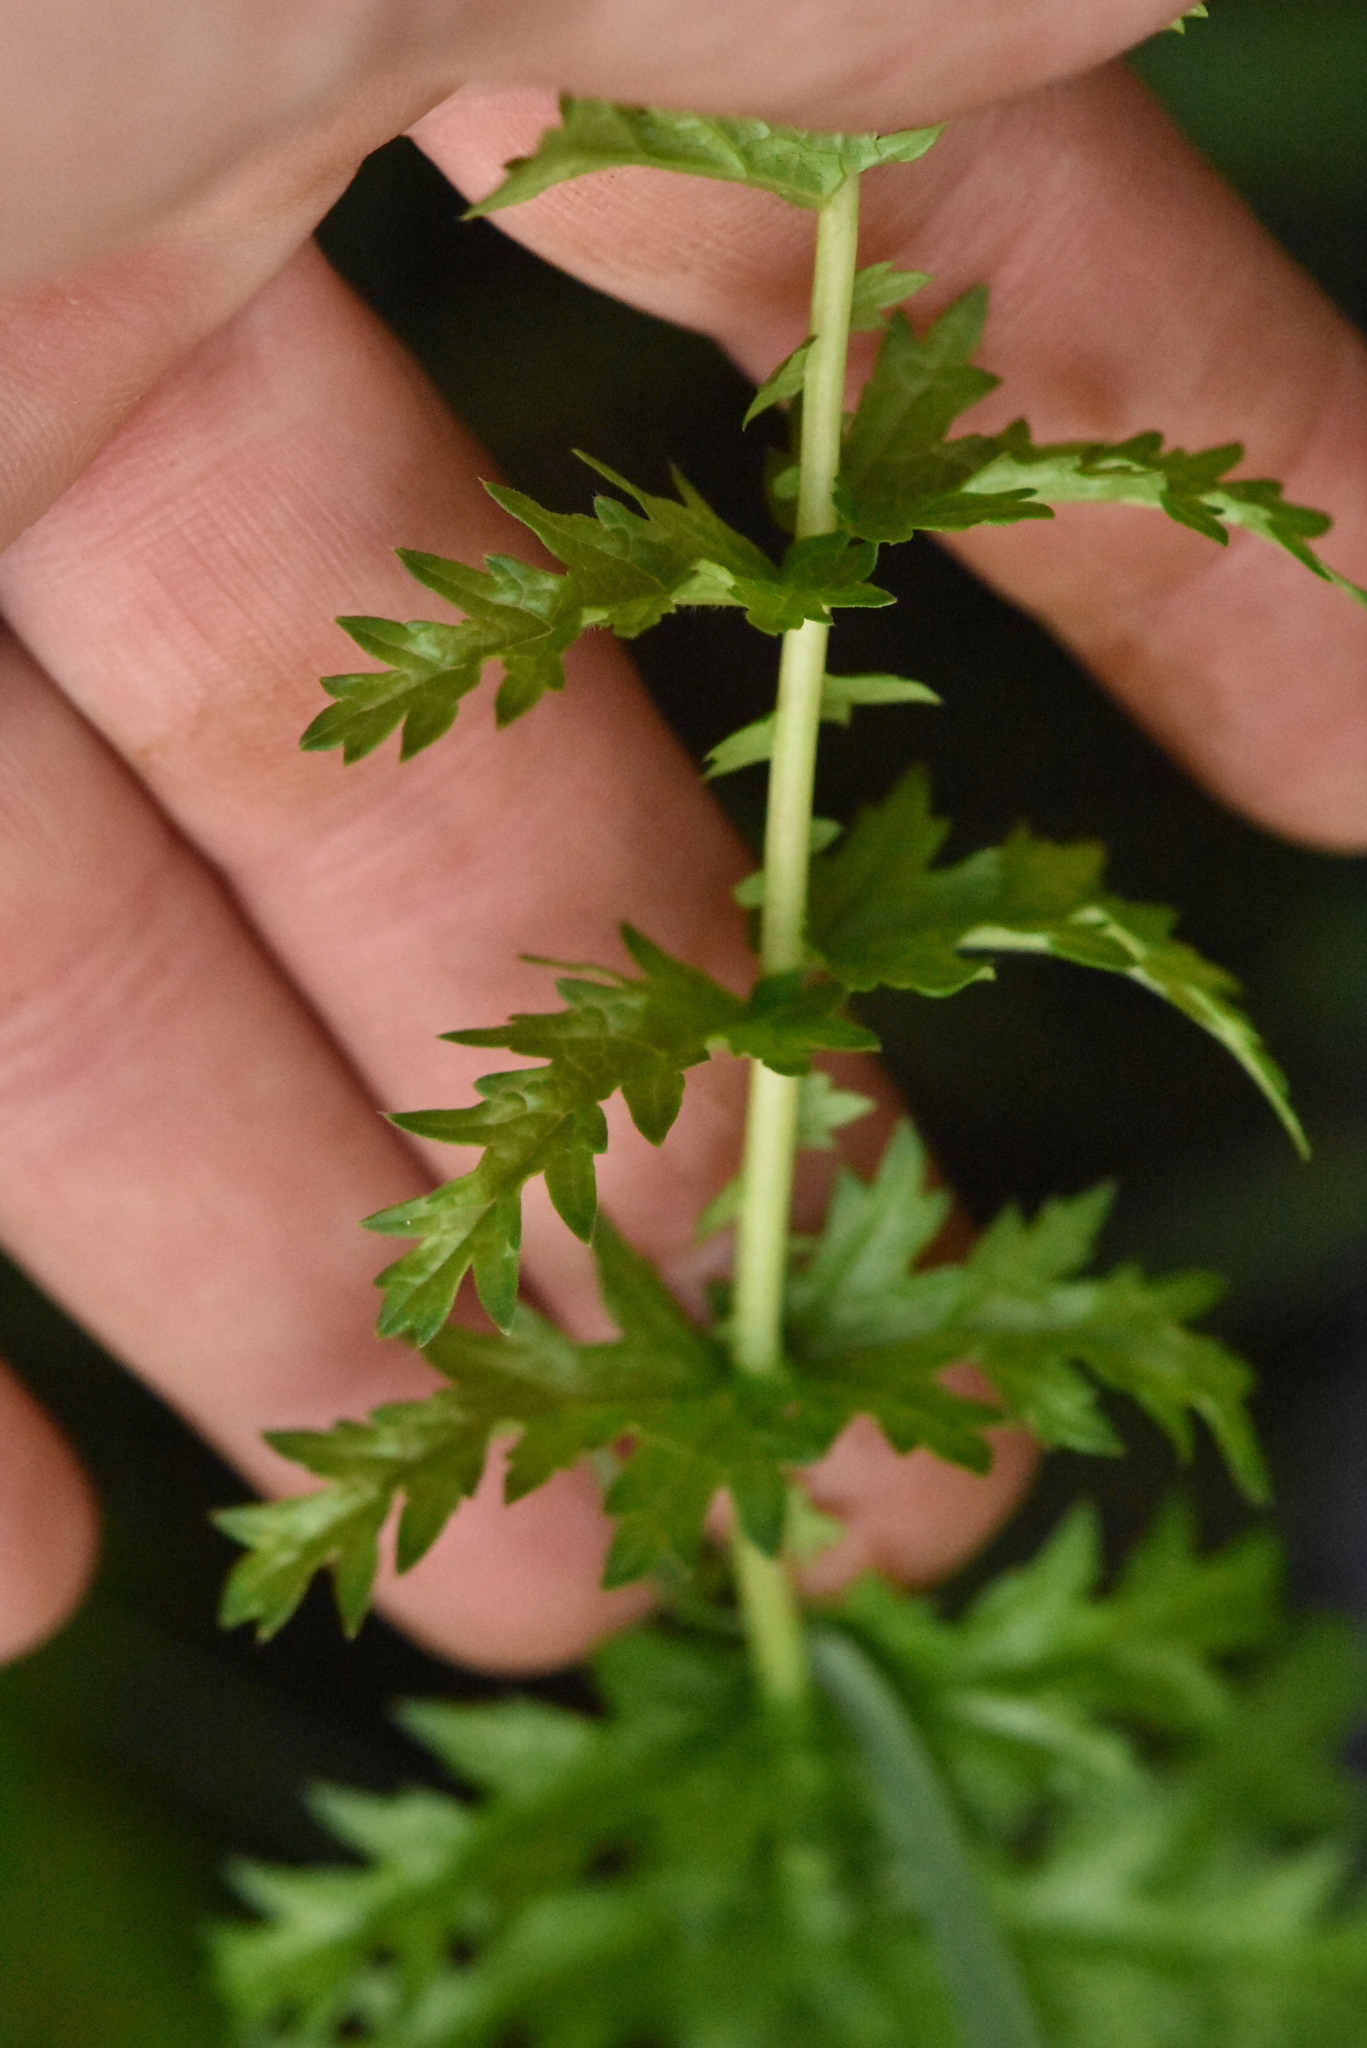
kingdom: Plantae
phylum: Tracheophyta
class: Magnoliopsida
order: Rosales
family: Rosaceae
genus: Filipendula
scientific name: Filipendula vulgaris
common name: Dropwort
